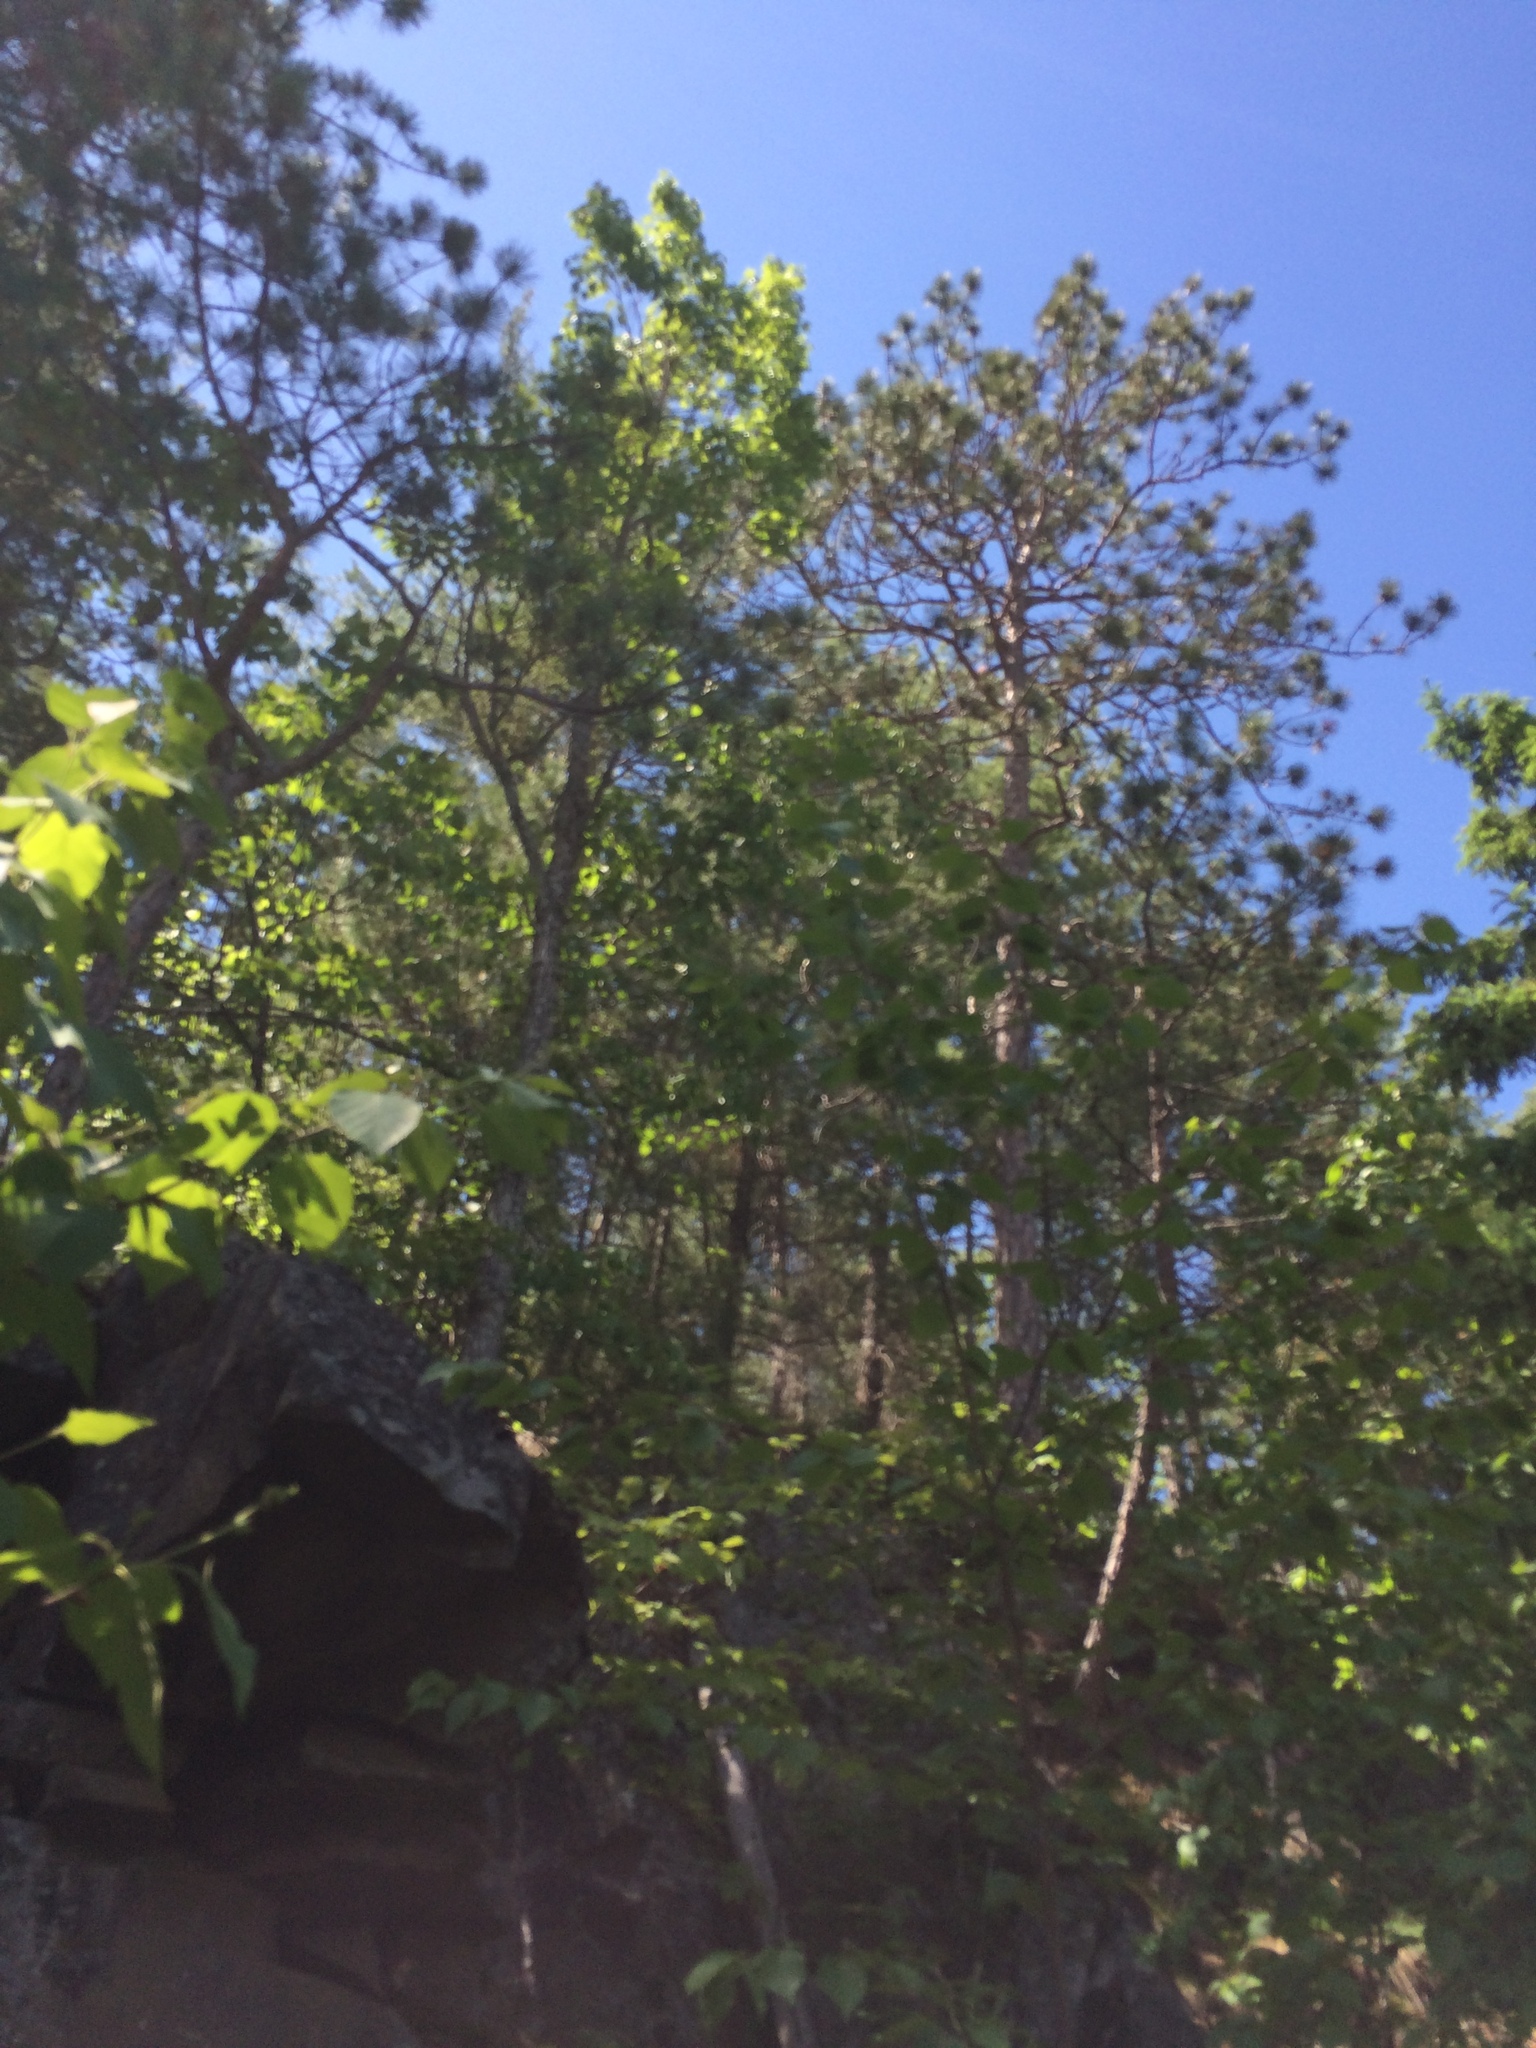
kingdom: Plantae
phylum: Tracheophyta
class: Pinopsida
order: Pinales
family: Pinaceae
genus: Pinus
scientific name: Pinus resinosa
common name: Norway pine
